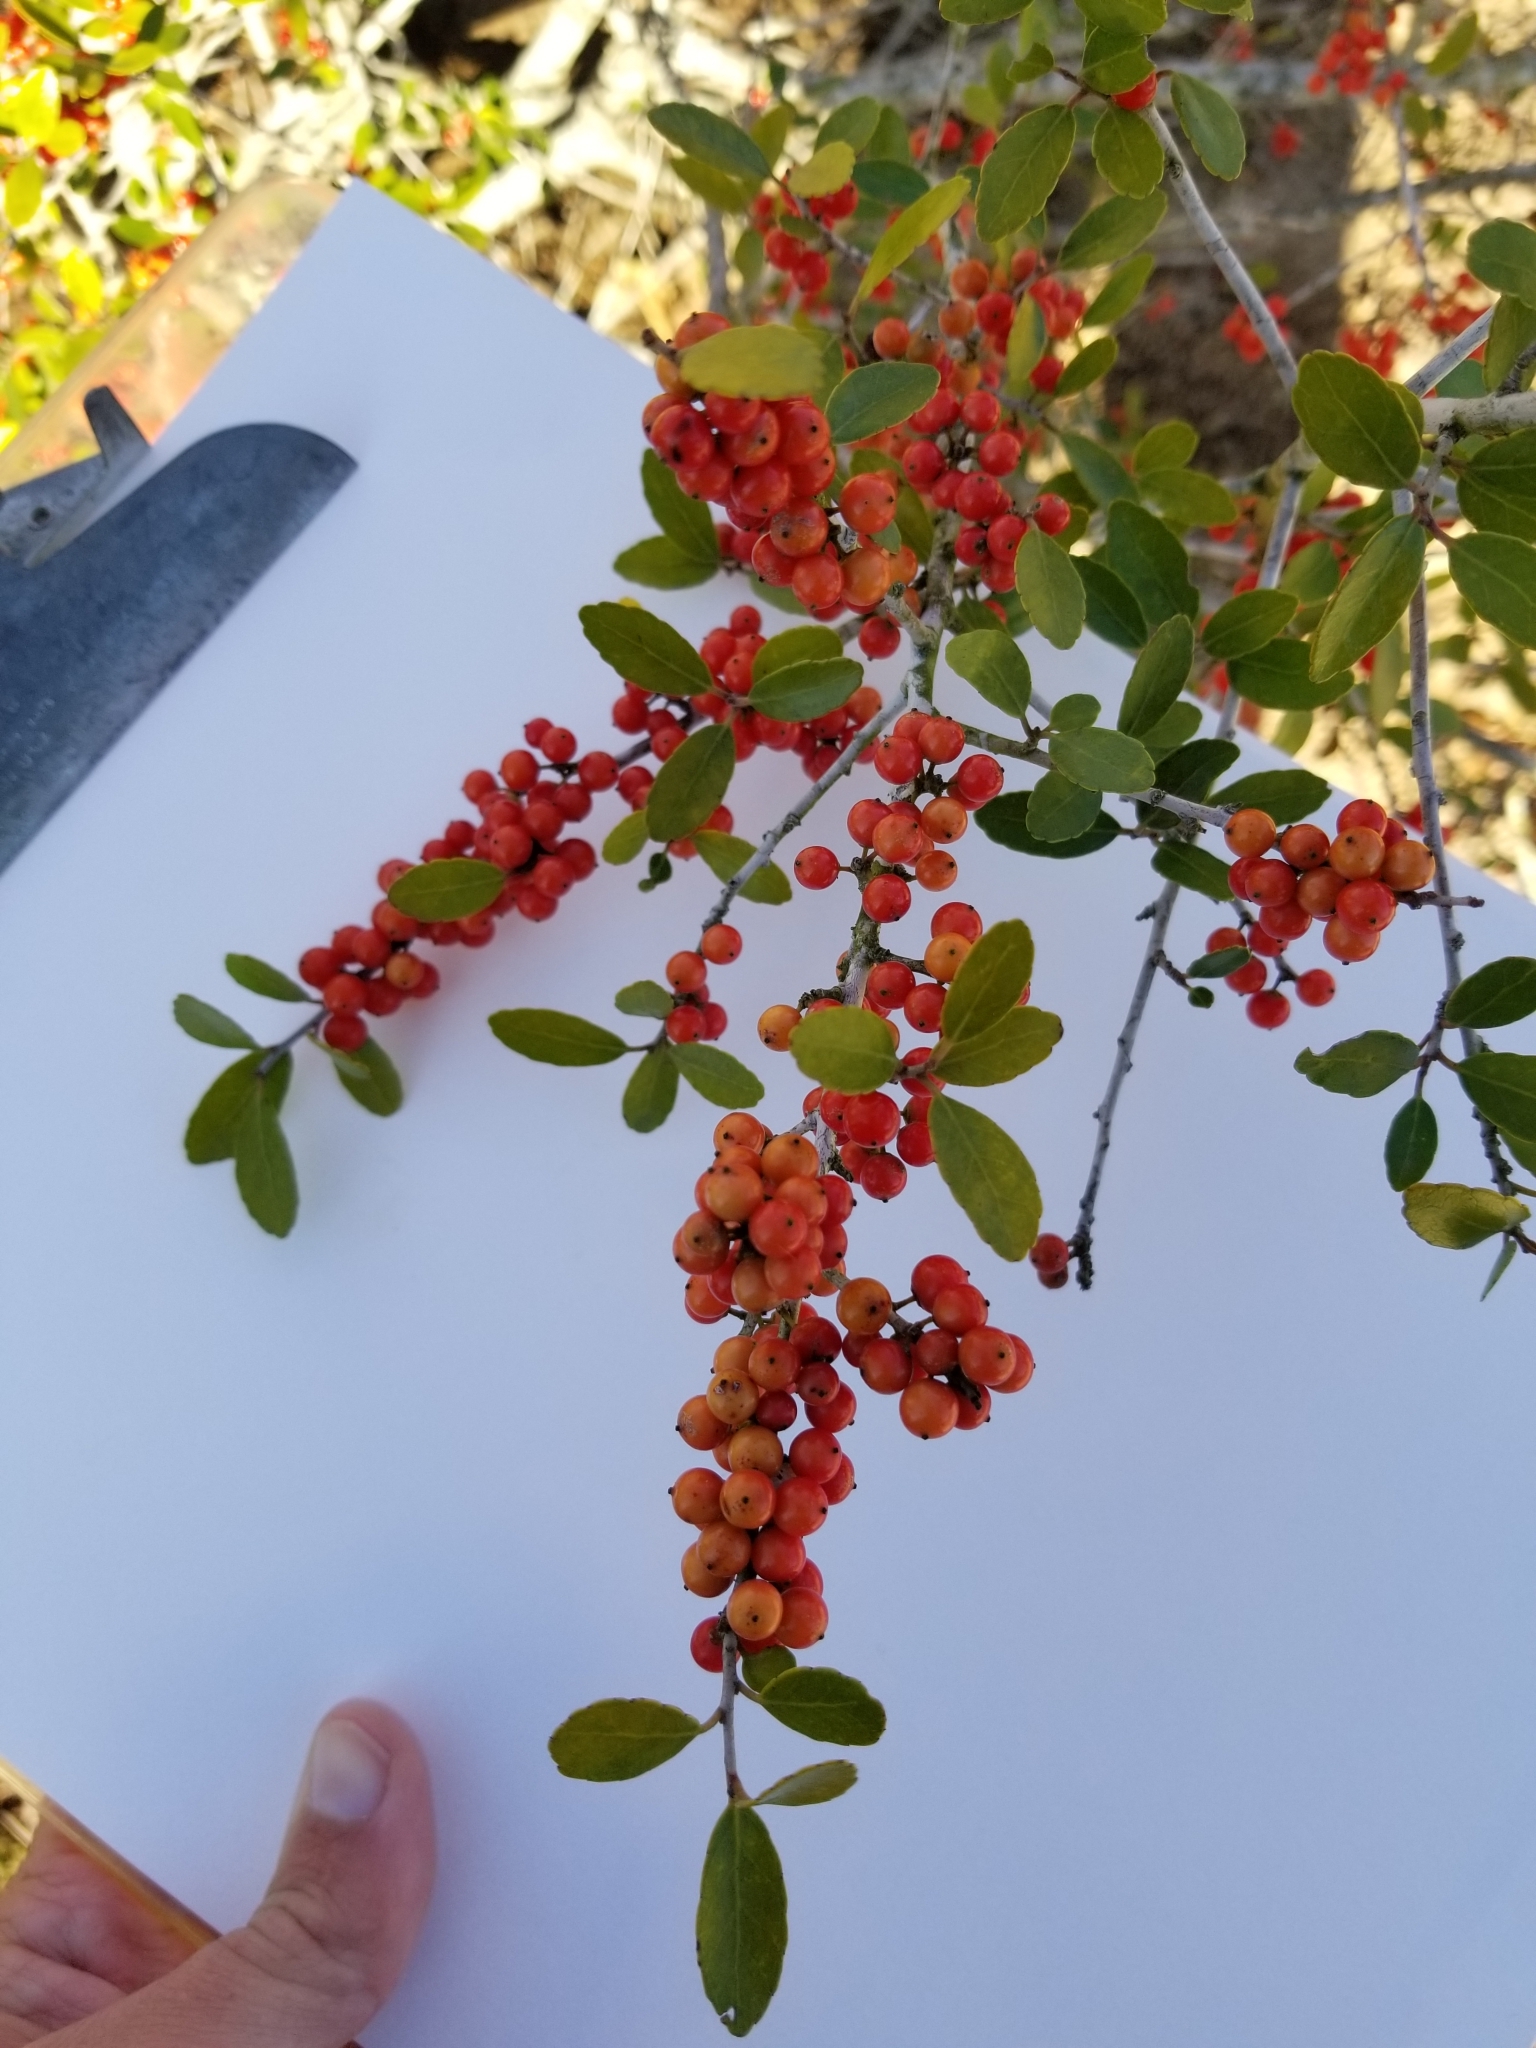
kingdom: Plantae
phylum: Tracheophyta
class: Magnoliopsida
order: Aquifoliales
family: Aquifoliaceae
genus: Ilex
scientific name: Ilex vomitoria
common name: Yaupon holly
